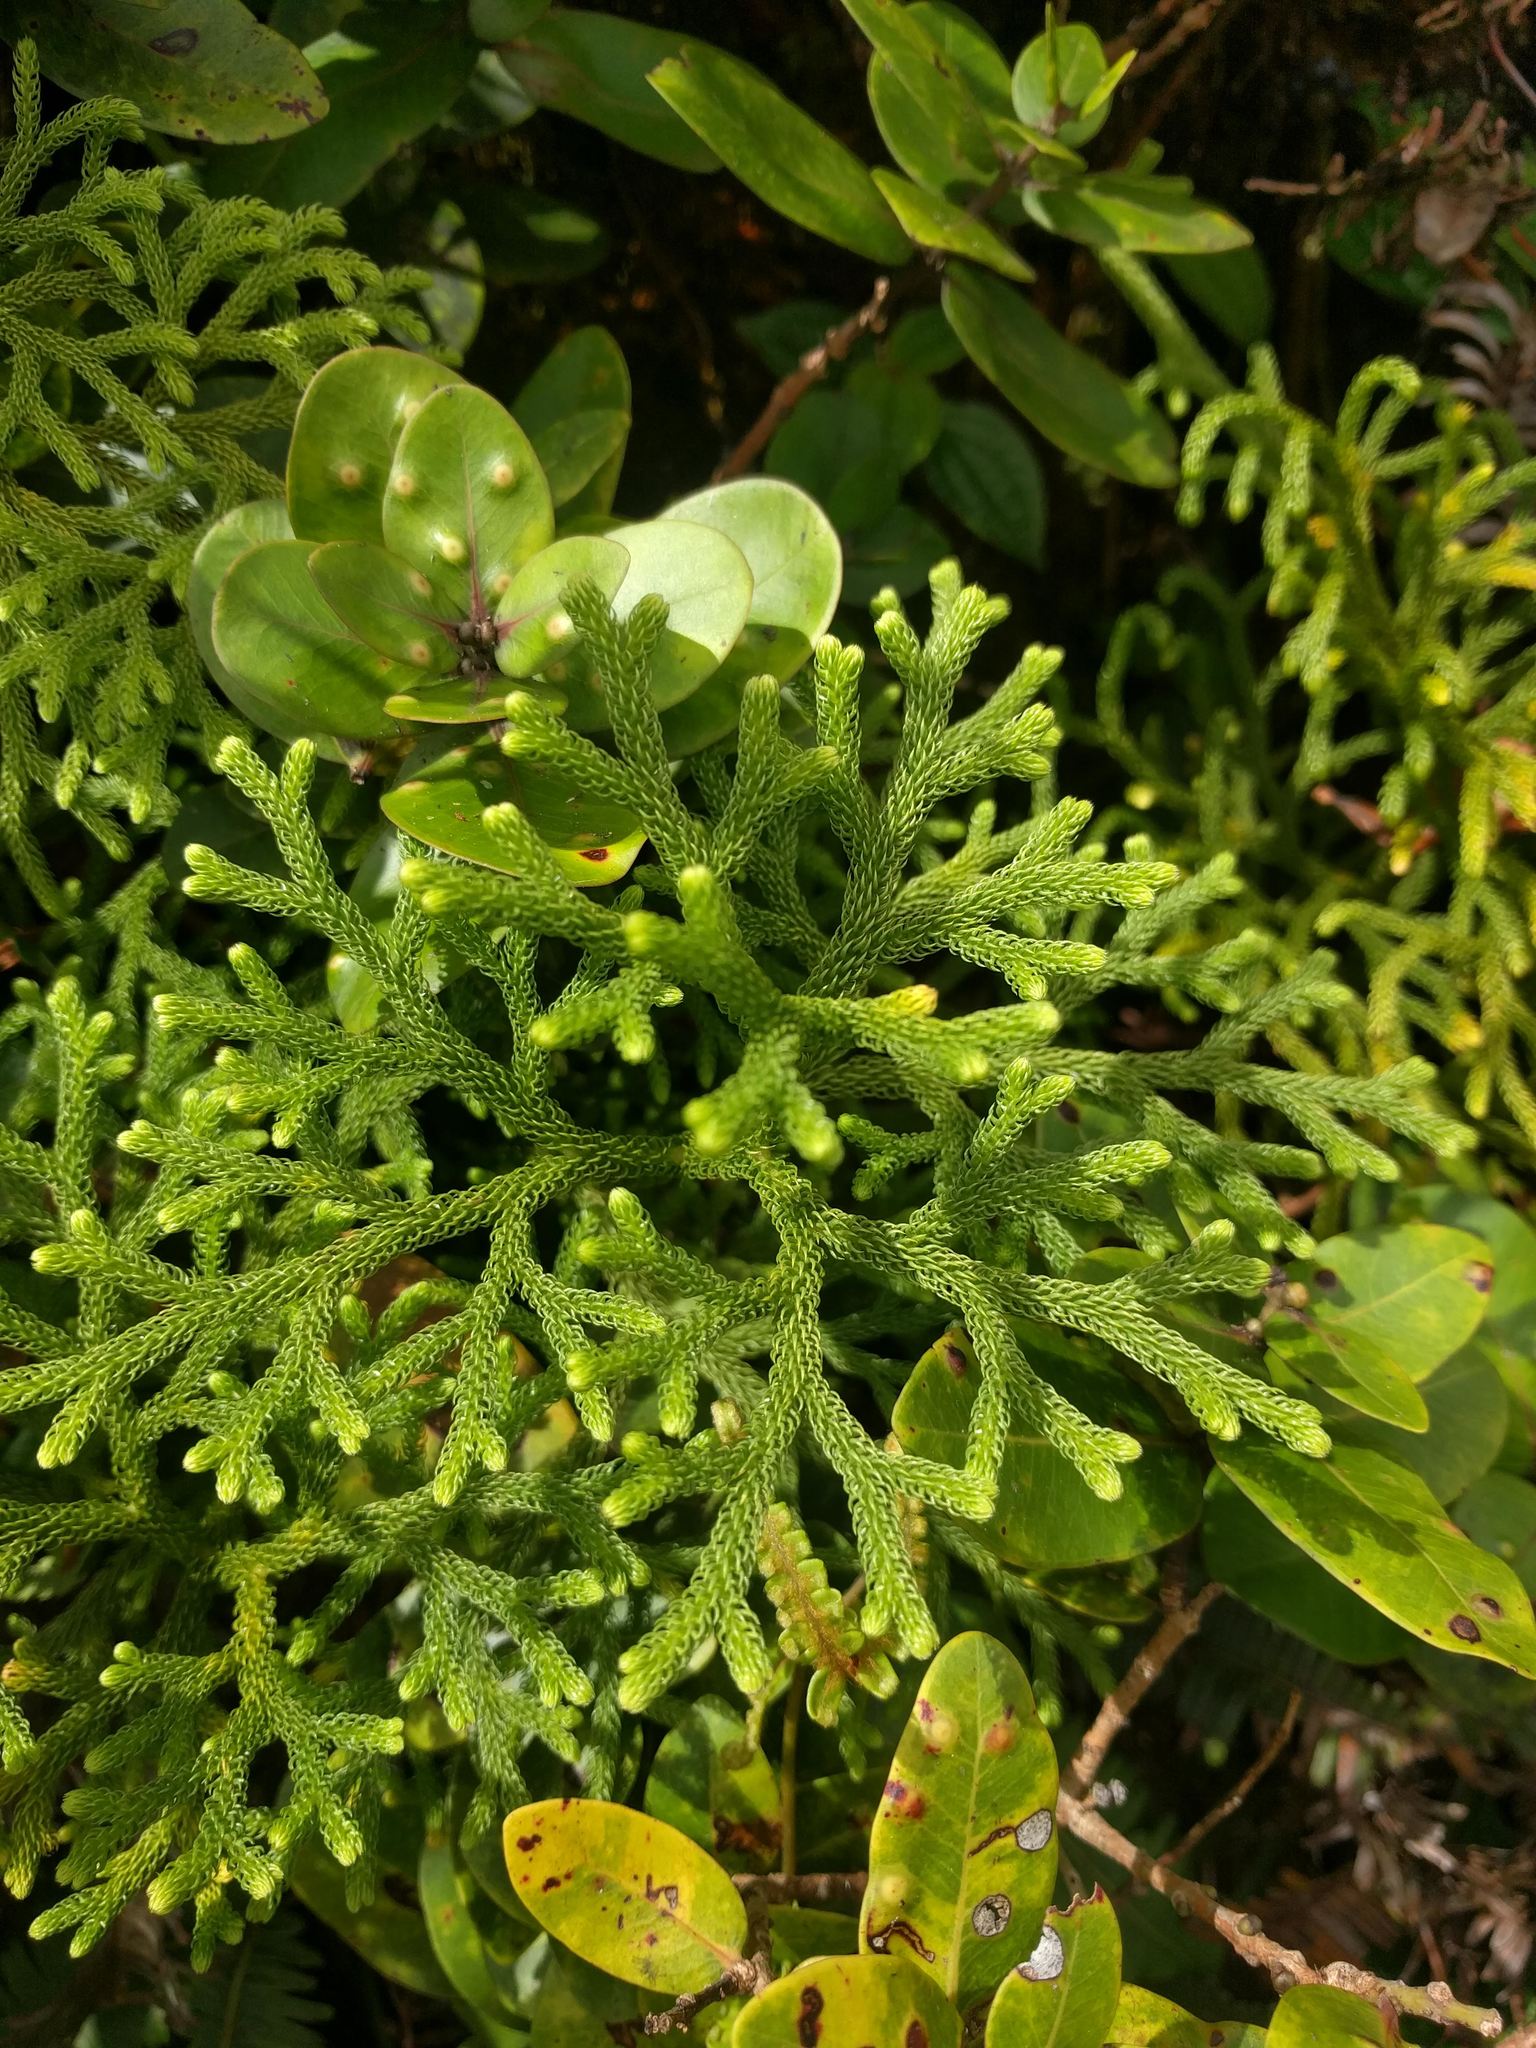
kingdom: Plantae
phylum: Tracheophyta
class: Lycopodiopsida
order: Lycopodiales
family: Lycopodiaceae
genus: Palhinhaea
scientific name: Palhinhaea cernua
